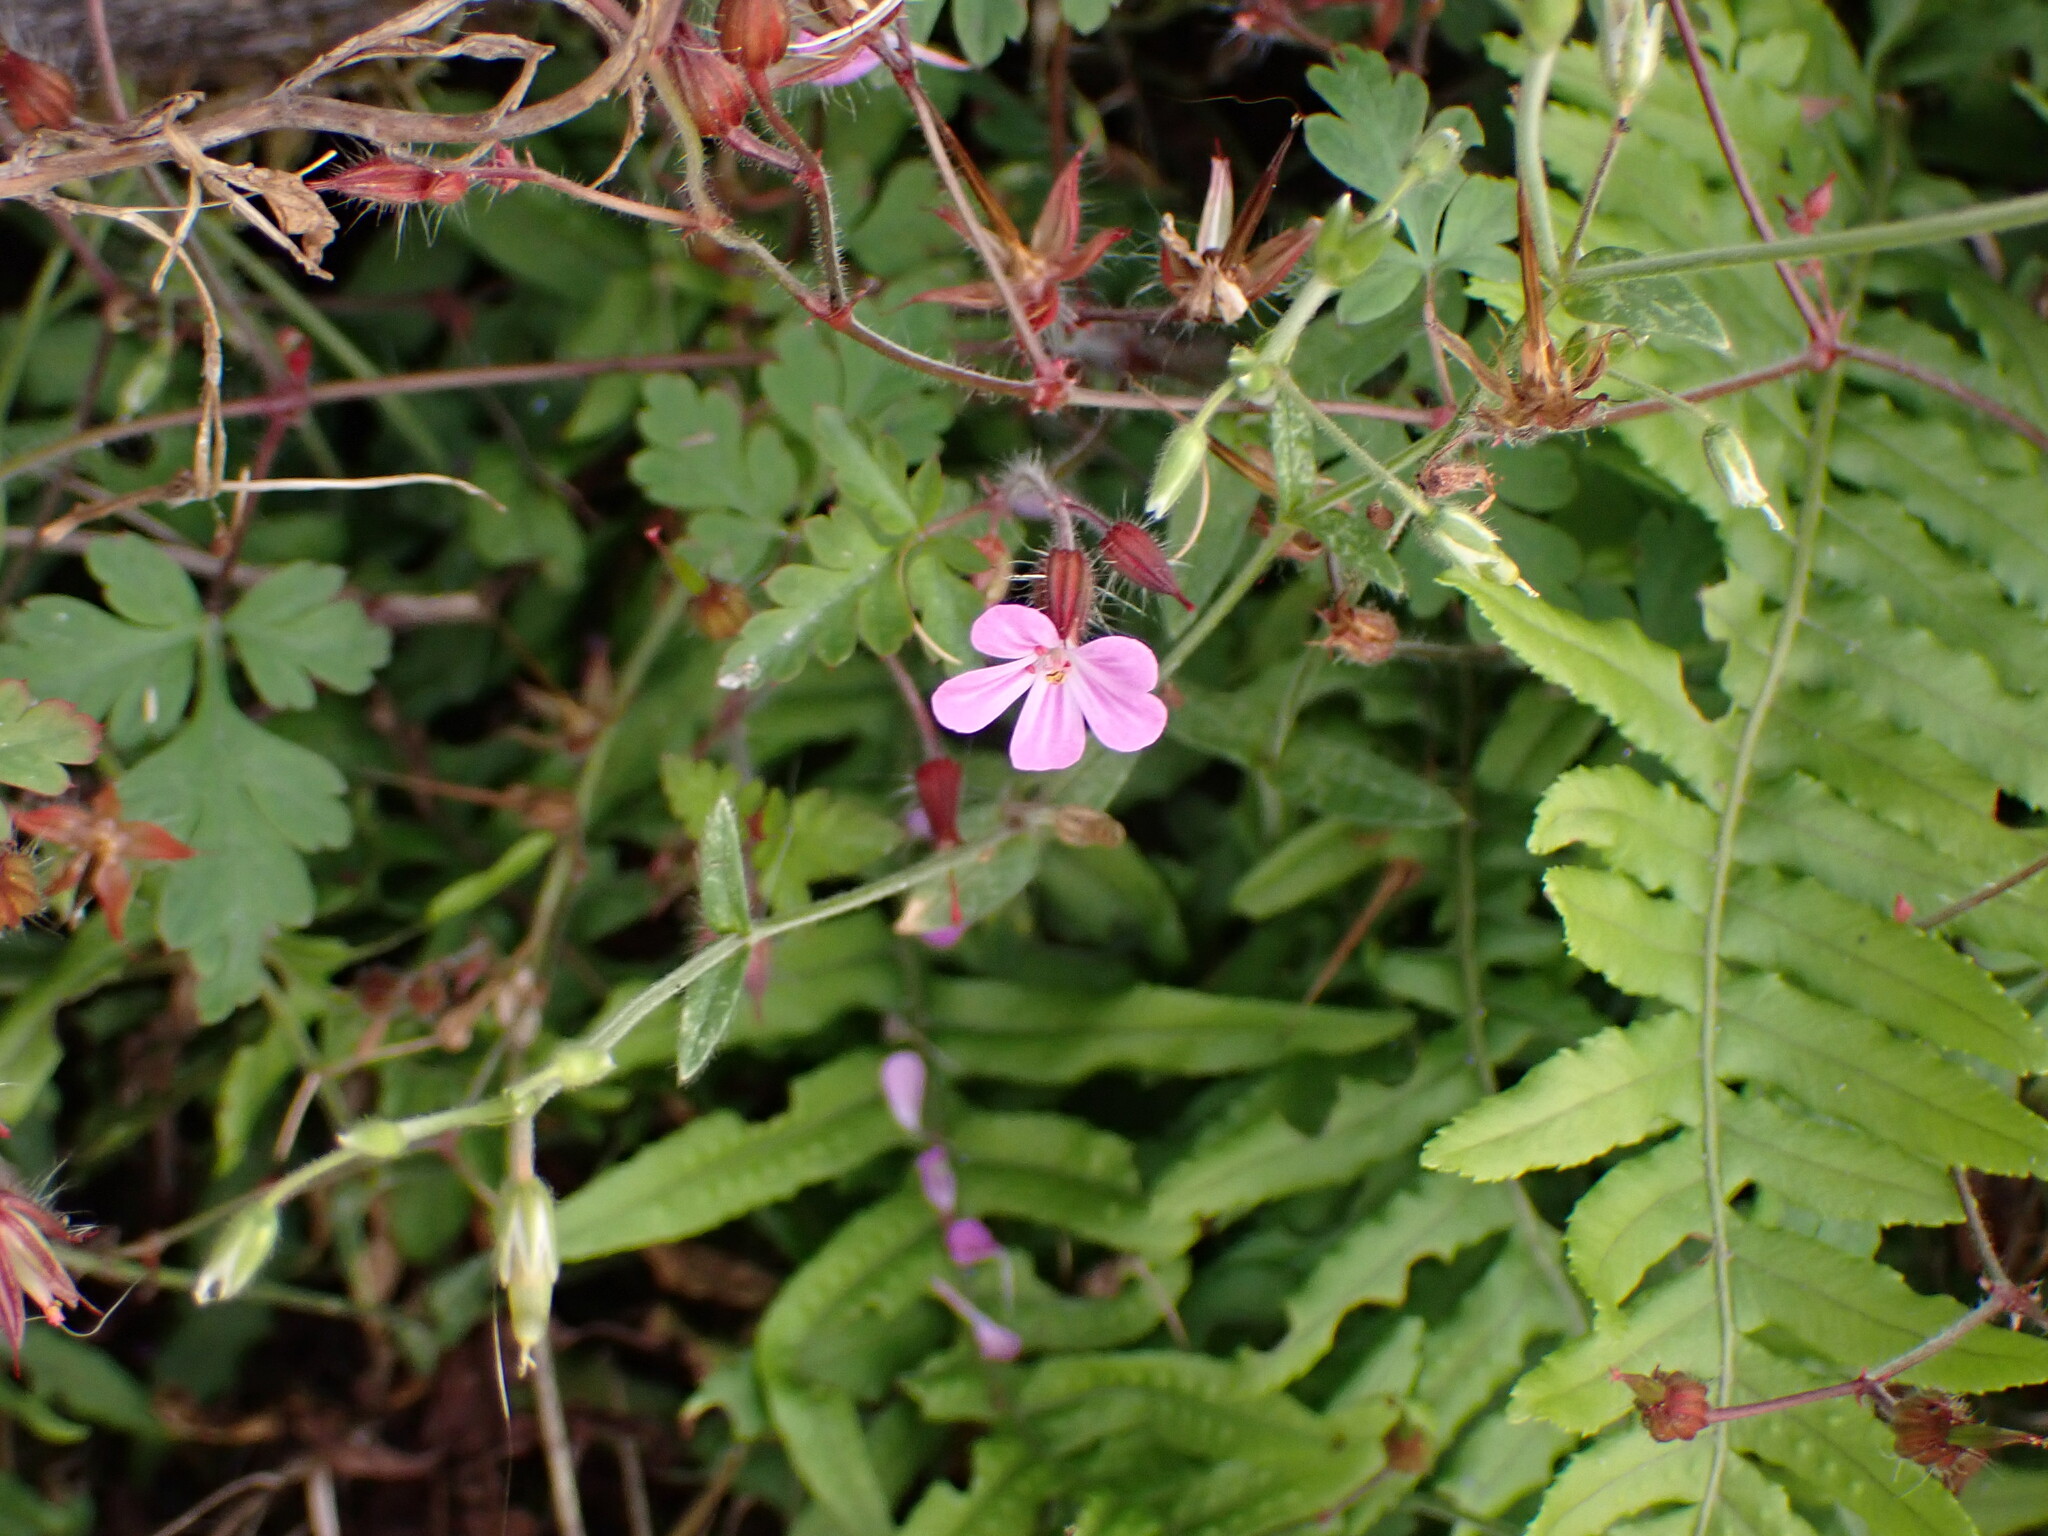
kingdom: Plantae
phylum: Tracheophyta
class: Magnoliopsida
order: Geraniales
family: Geraniaceae
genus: Geranium
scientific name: Geranium robertianum
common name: Herb-robert
